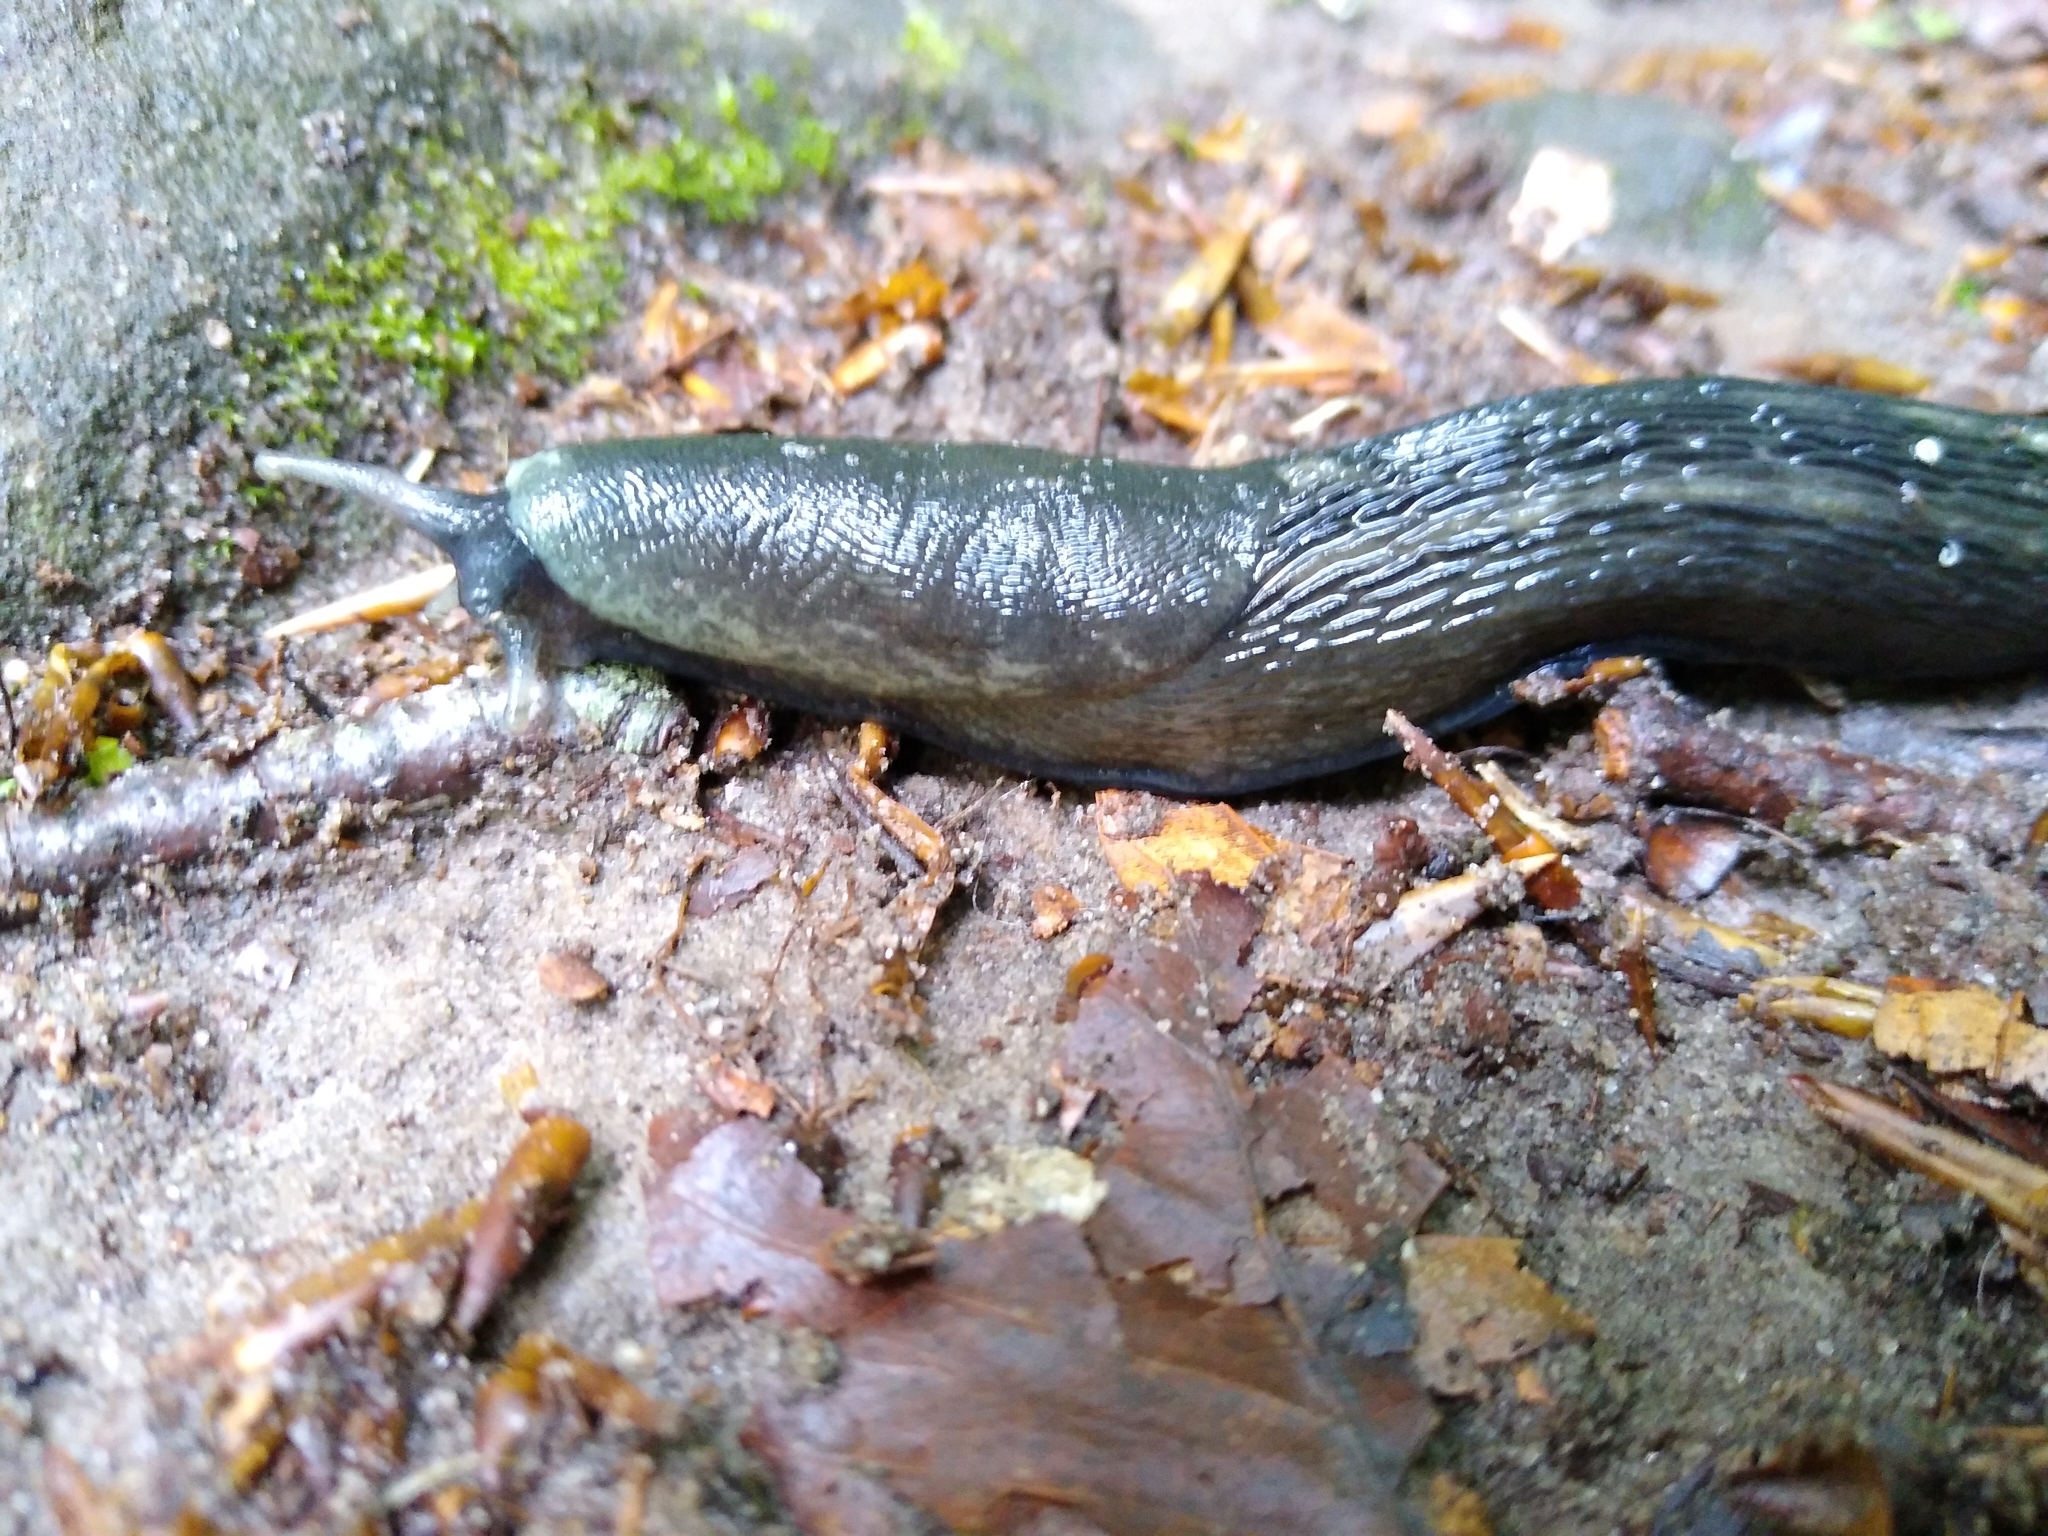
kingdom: Animalia
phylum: Mollusca
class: Gastropoda
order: Stylommatophora
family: Limacidae
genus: Limax
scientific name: Limax cinereoniger
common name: Ash-black slug
